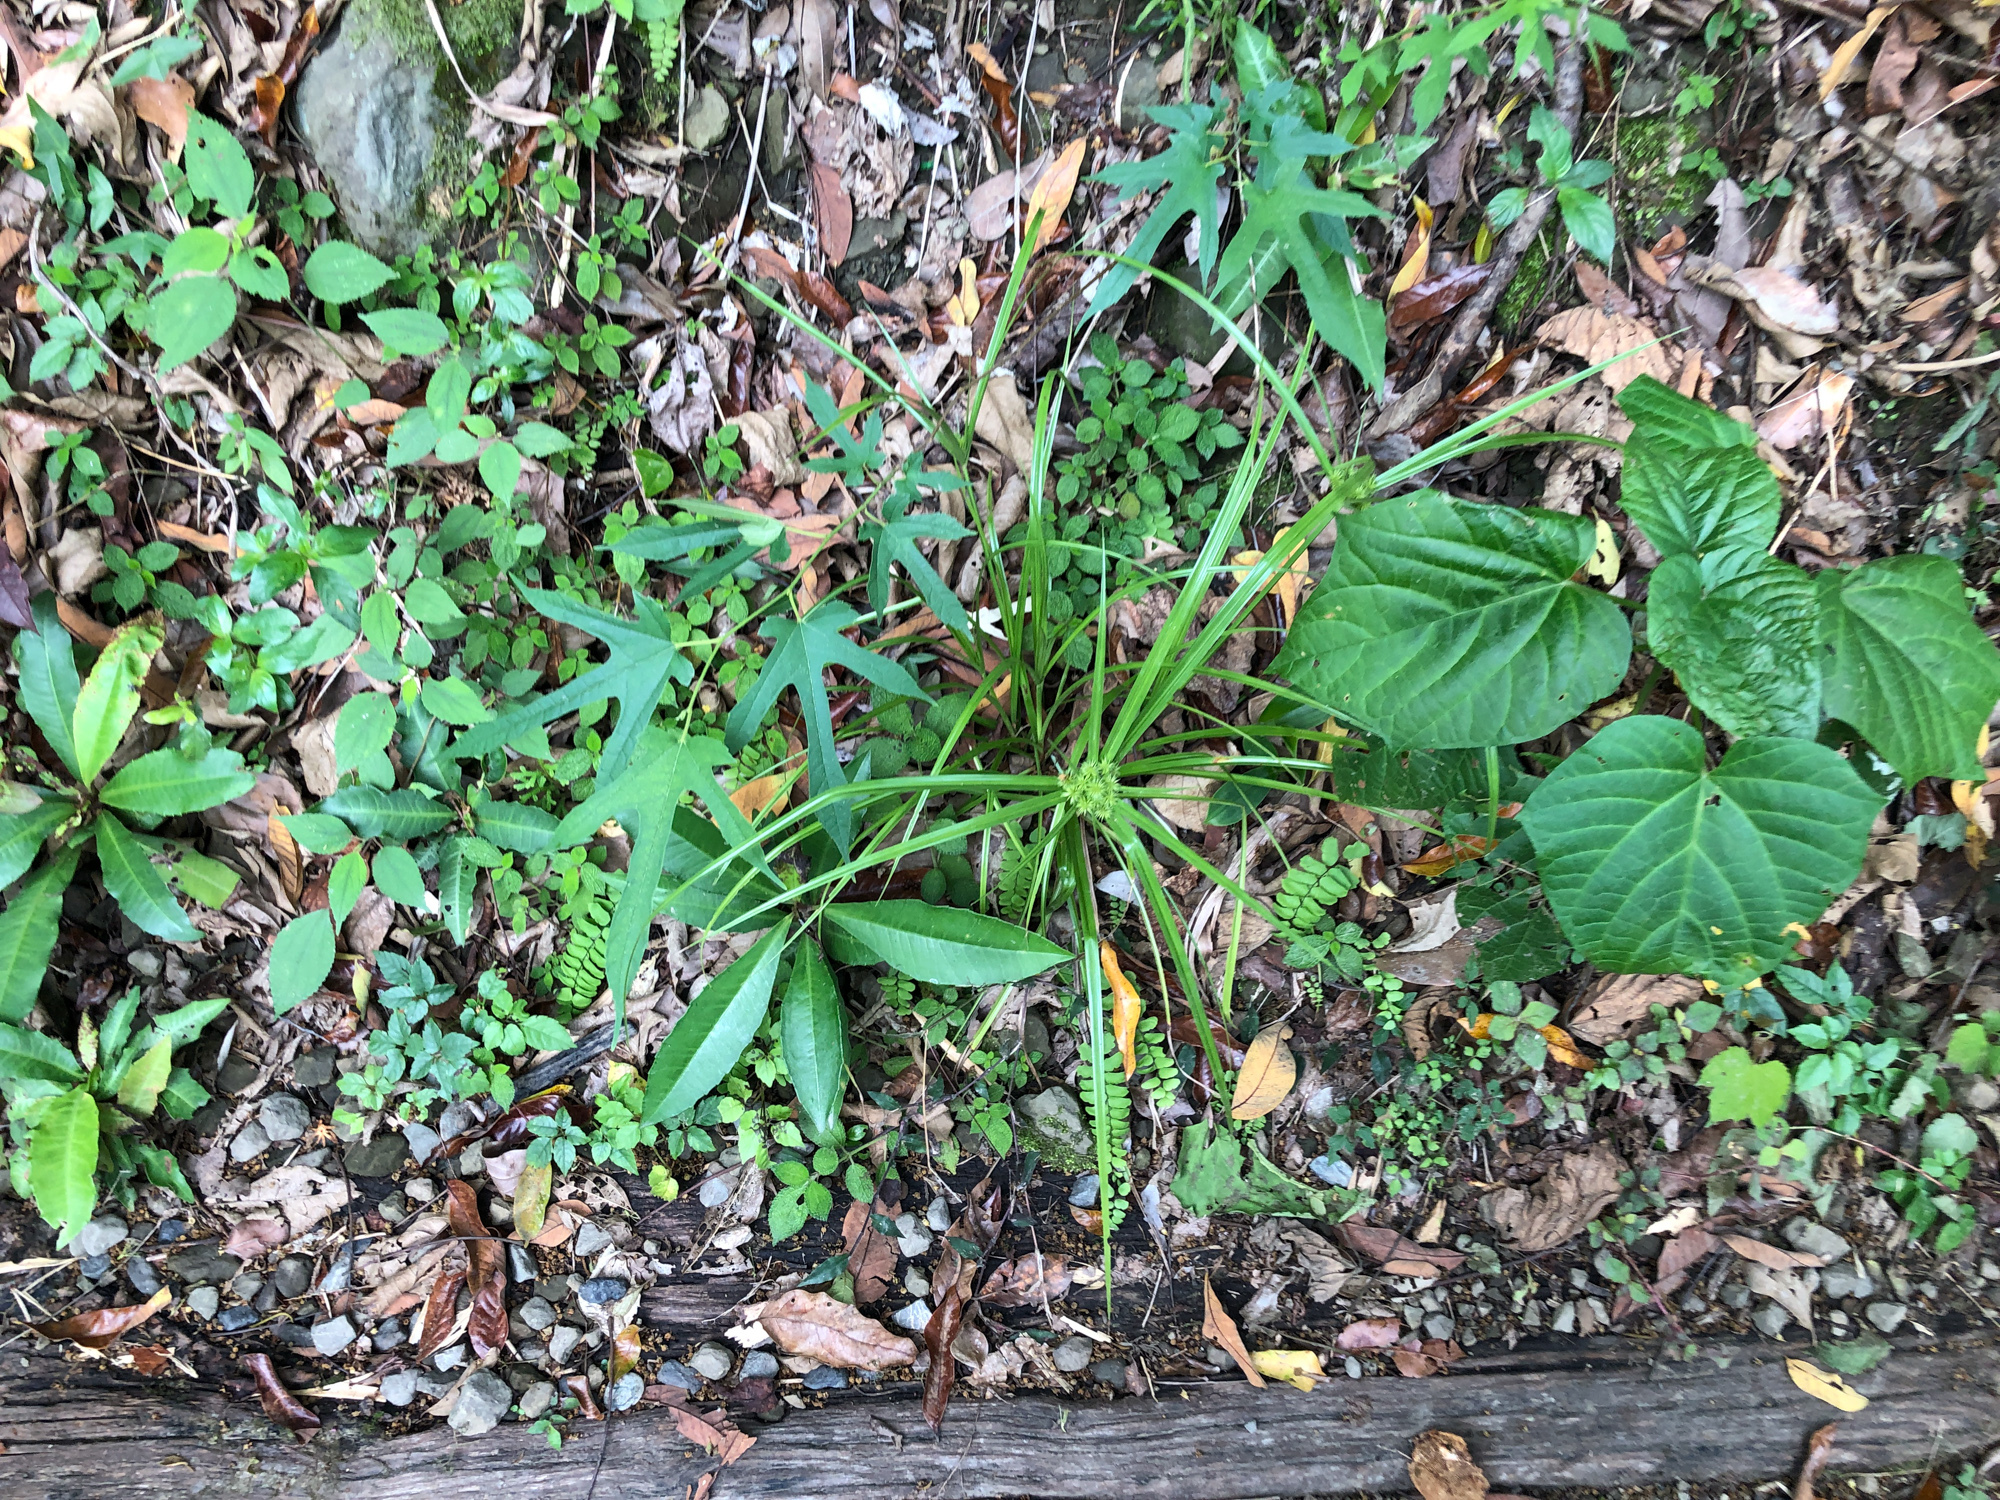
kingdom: Plantae
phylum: Tracheophyta
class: Liliopsida
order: Poales
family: Cyperaceae
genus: Cyperus
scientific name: Cyperus cyperoides
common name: Pacific island flat sedge
